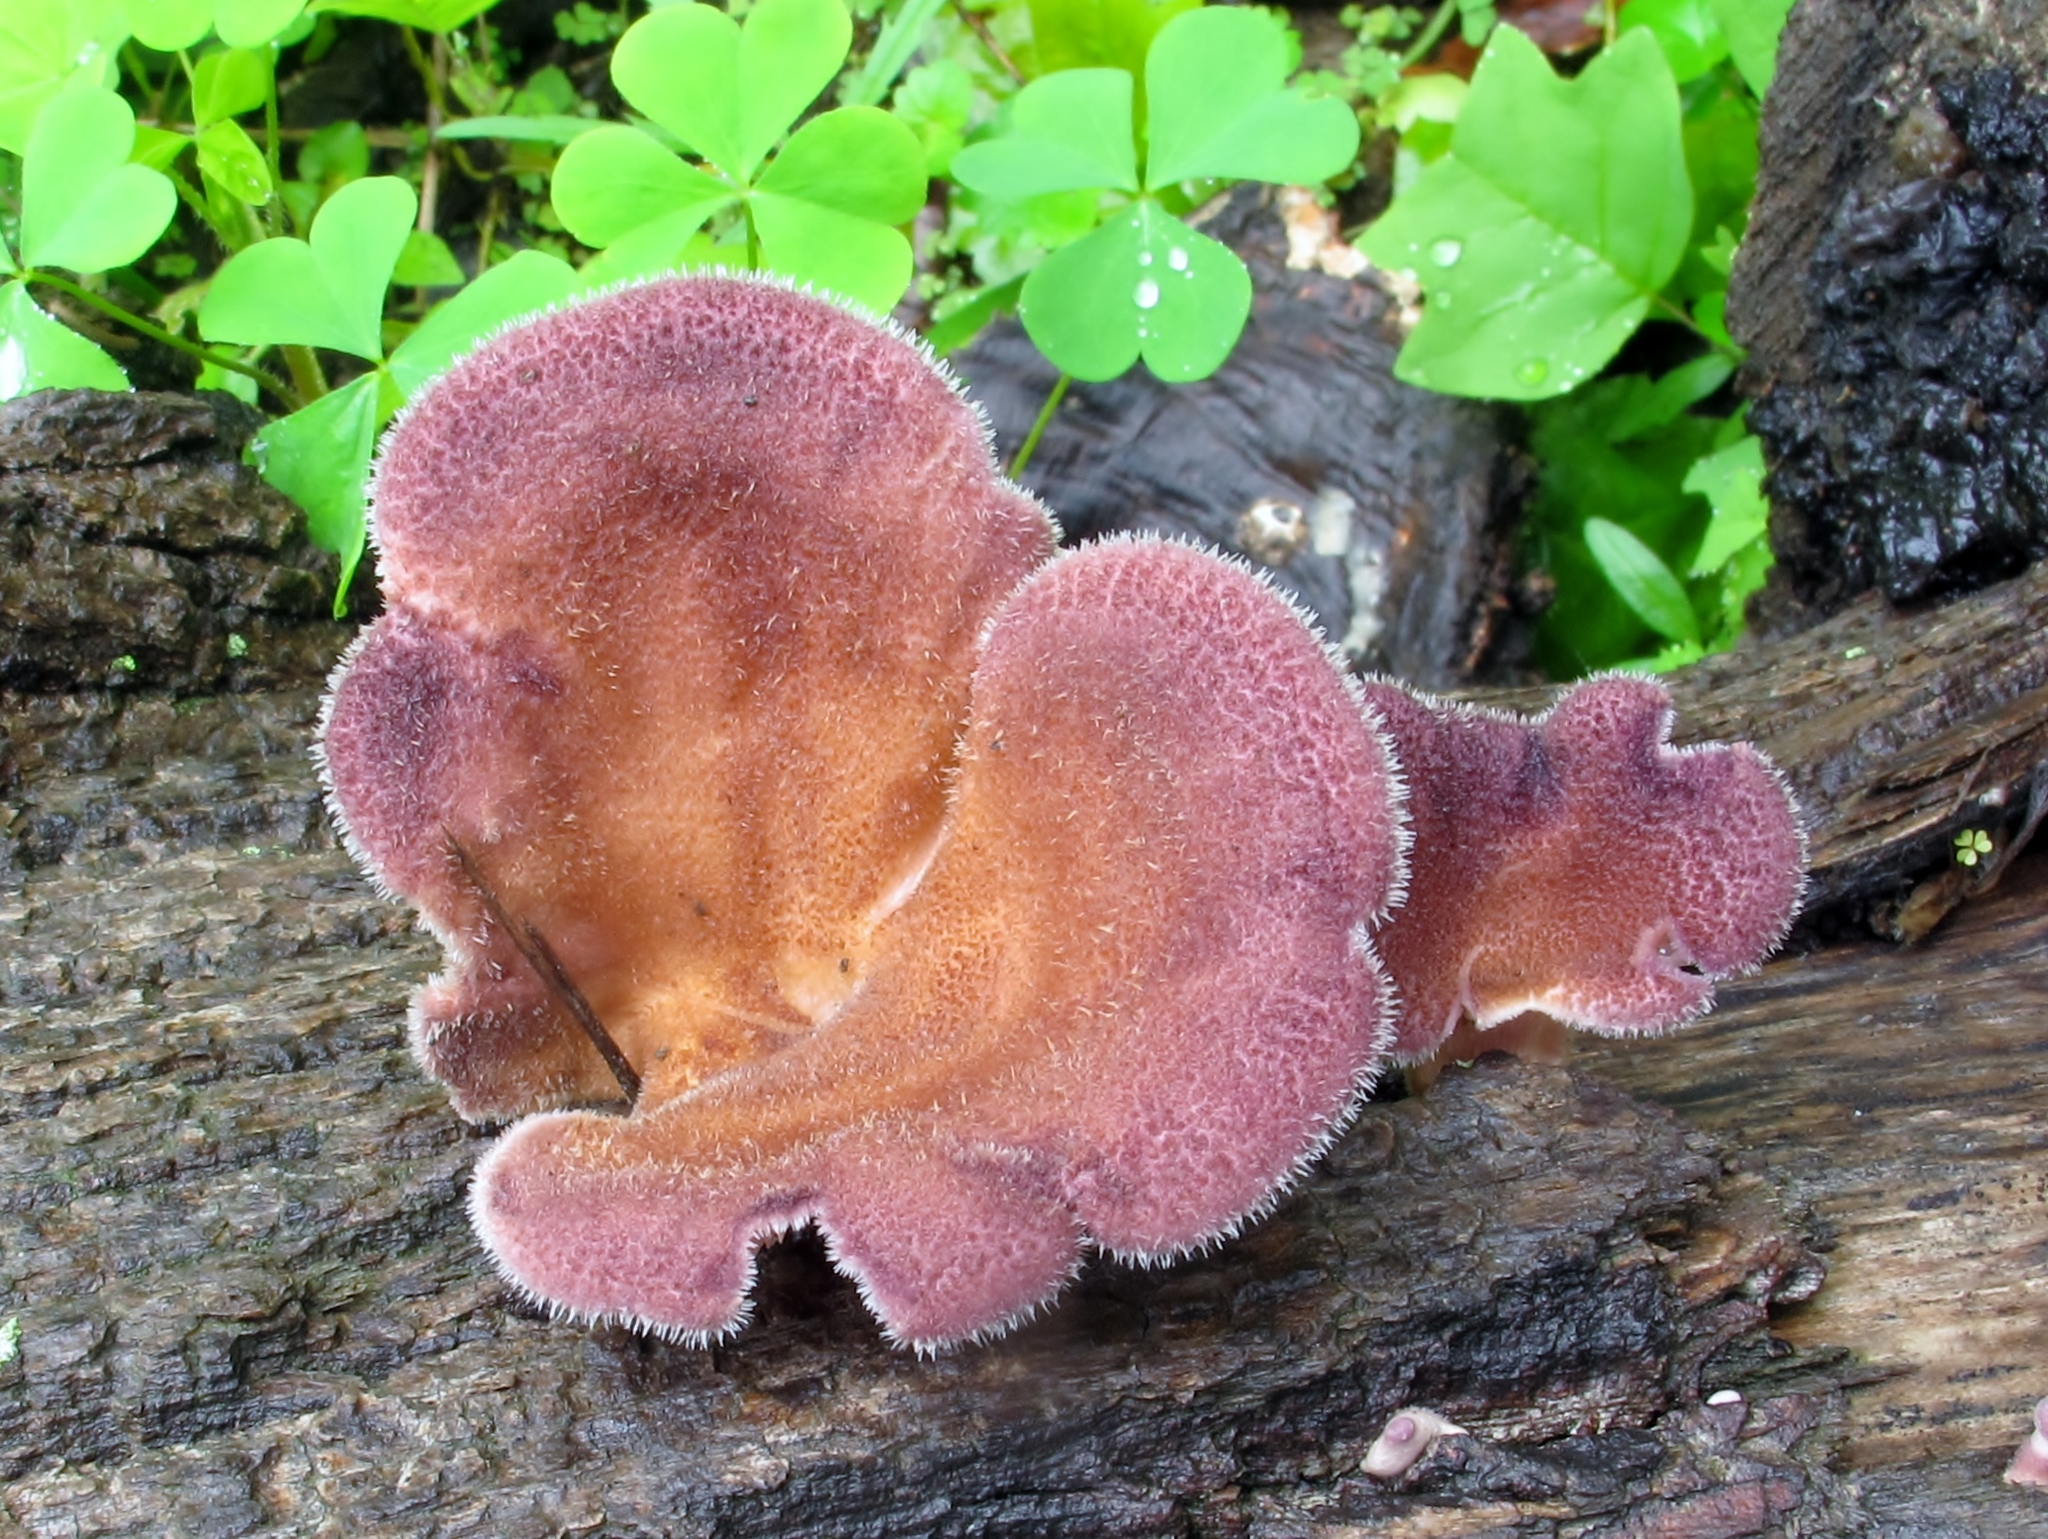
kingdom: Fungi
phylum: Basidiomycota
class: Agaricomycetes
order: Polyporales
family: Panaceae
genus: Panus
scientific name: Panus neostrigosus
